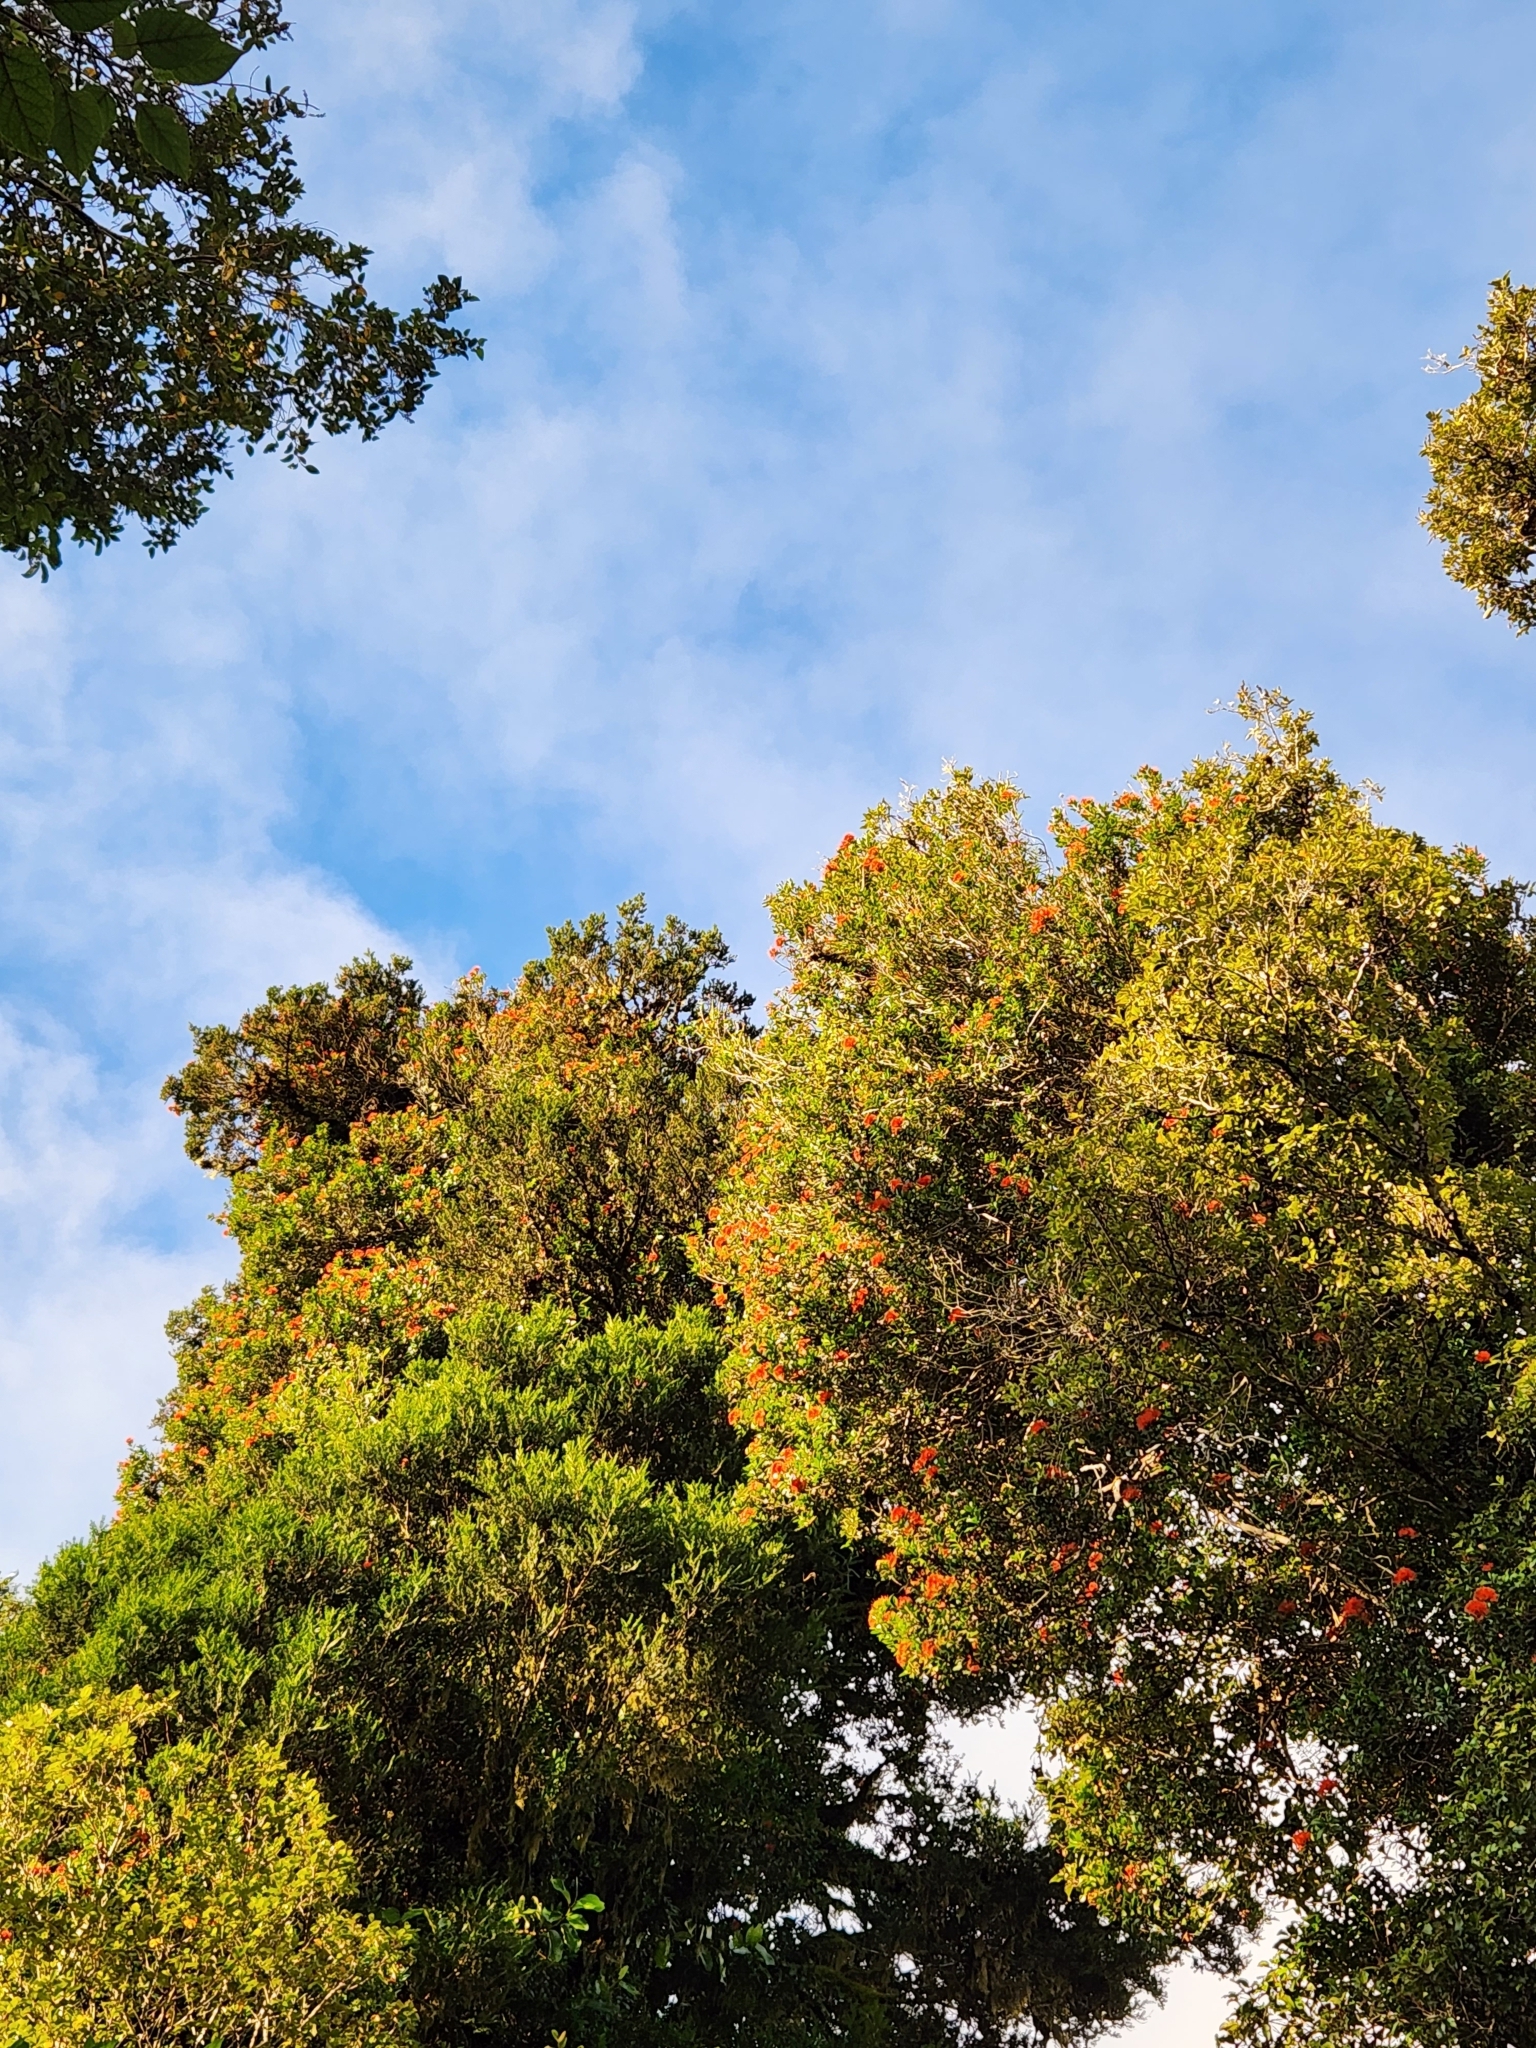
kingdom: Plantae
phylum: Tracheophyta
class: Magnoliopsida
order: Myrtales
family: Myrtaceae
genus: Metrosideros
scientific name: Metrosideros umbellata
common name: Southern rata
